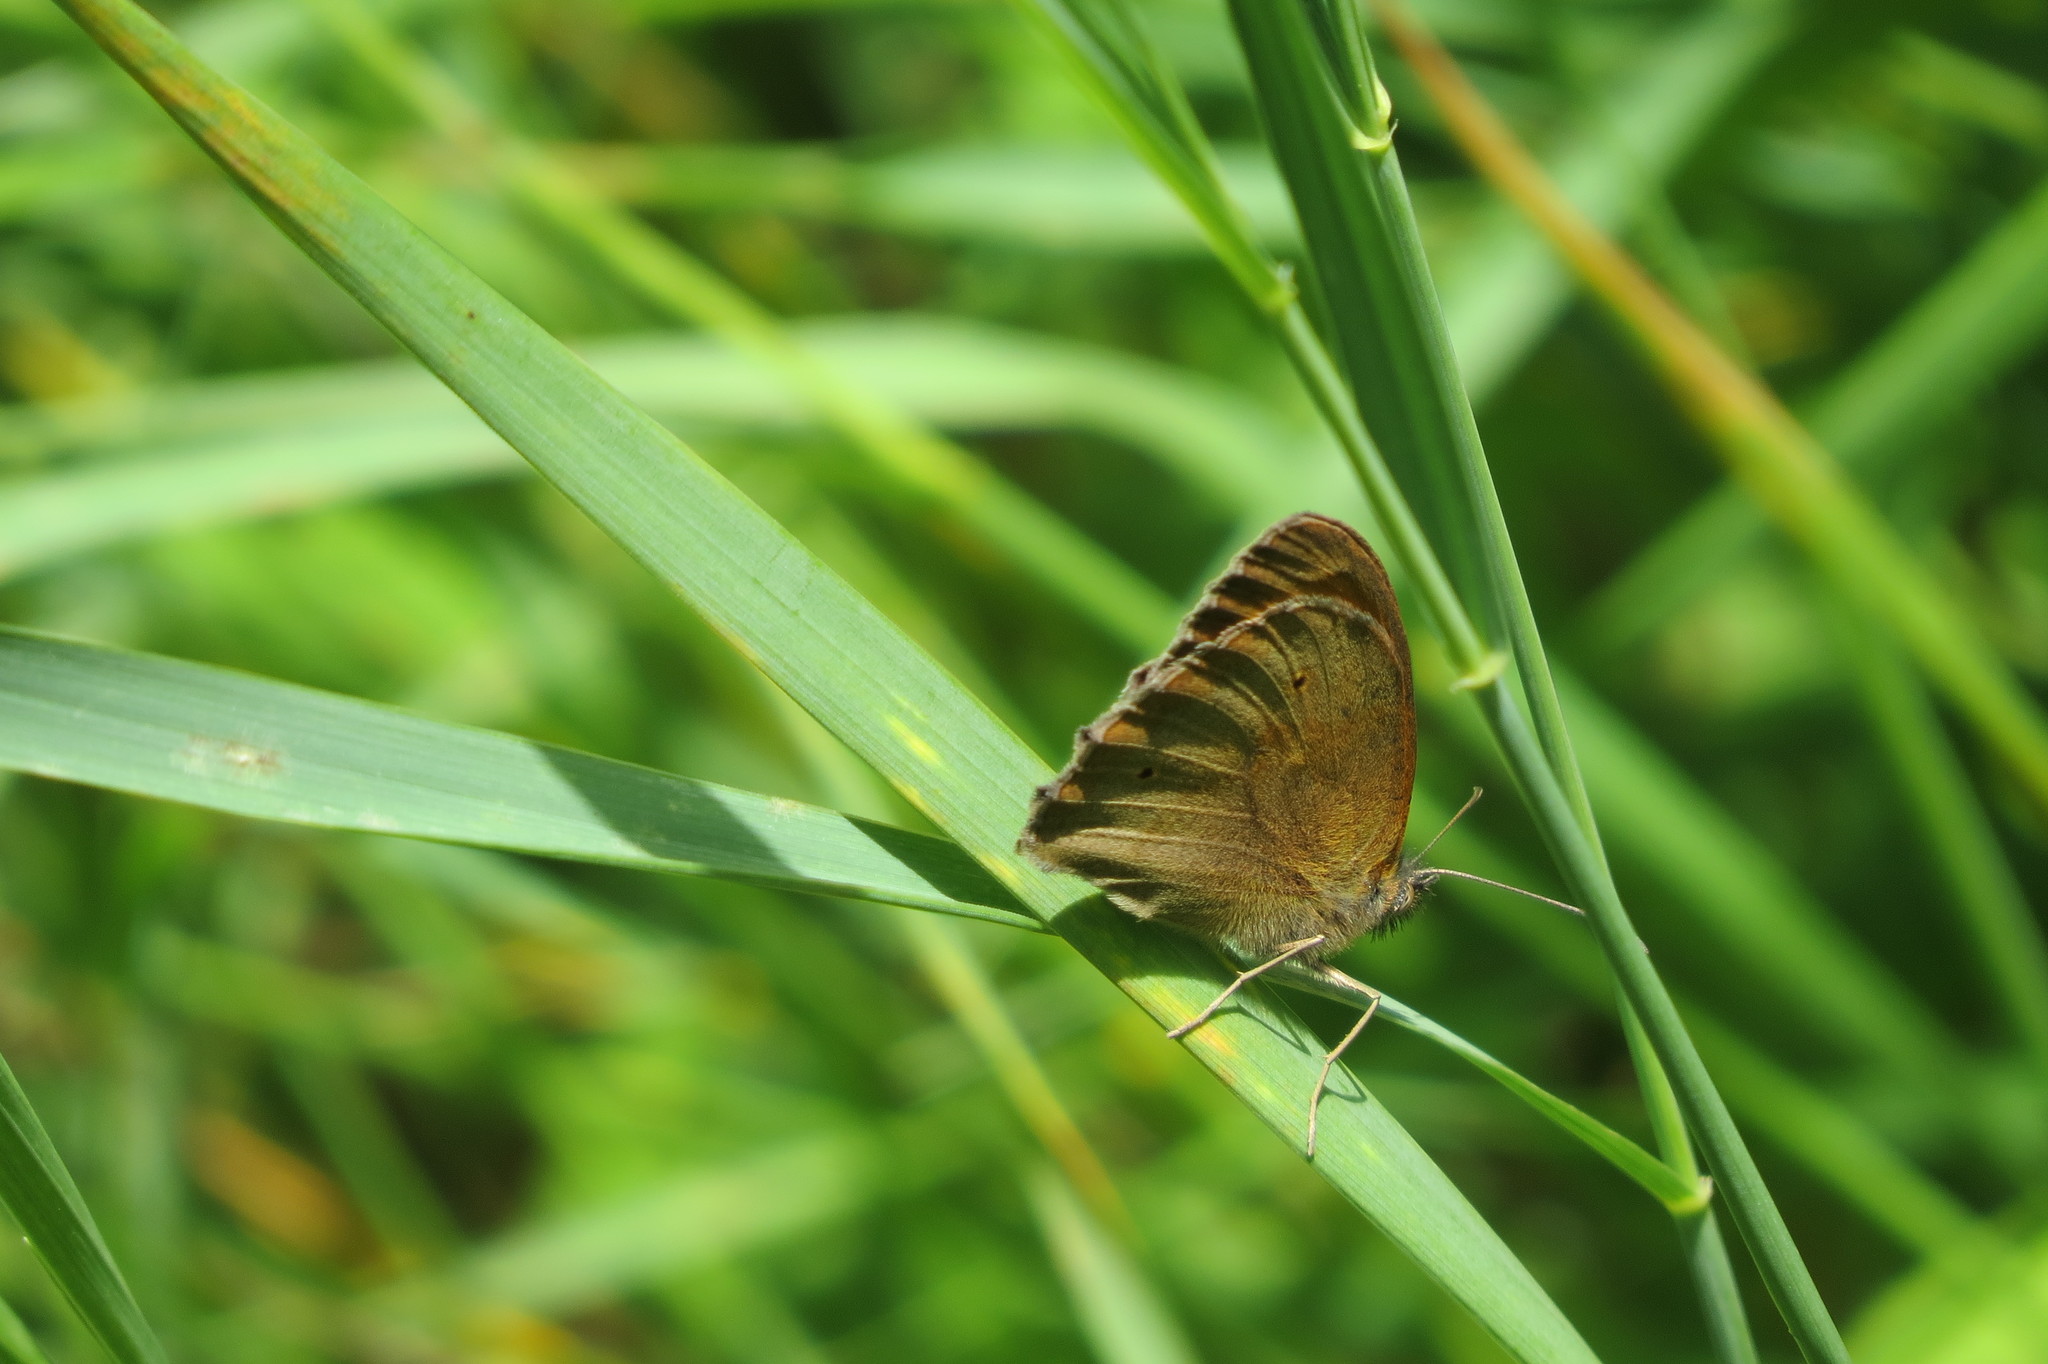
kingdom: Animalia
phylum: Arthropoda
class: Insecta
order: Lepidoptera
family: Nymphalidae
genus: Maniola
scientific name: Maniola jurtina
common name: Meadow brown
